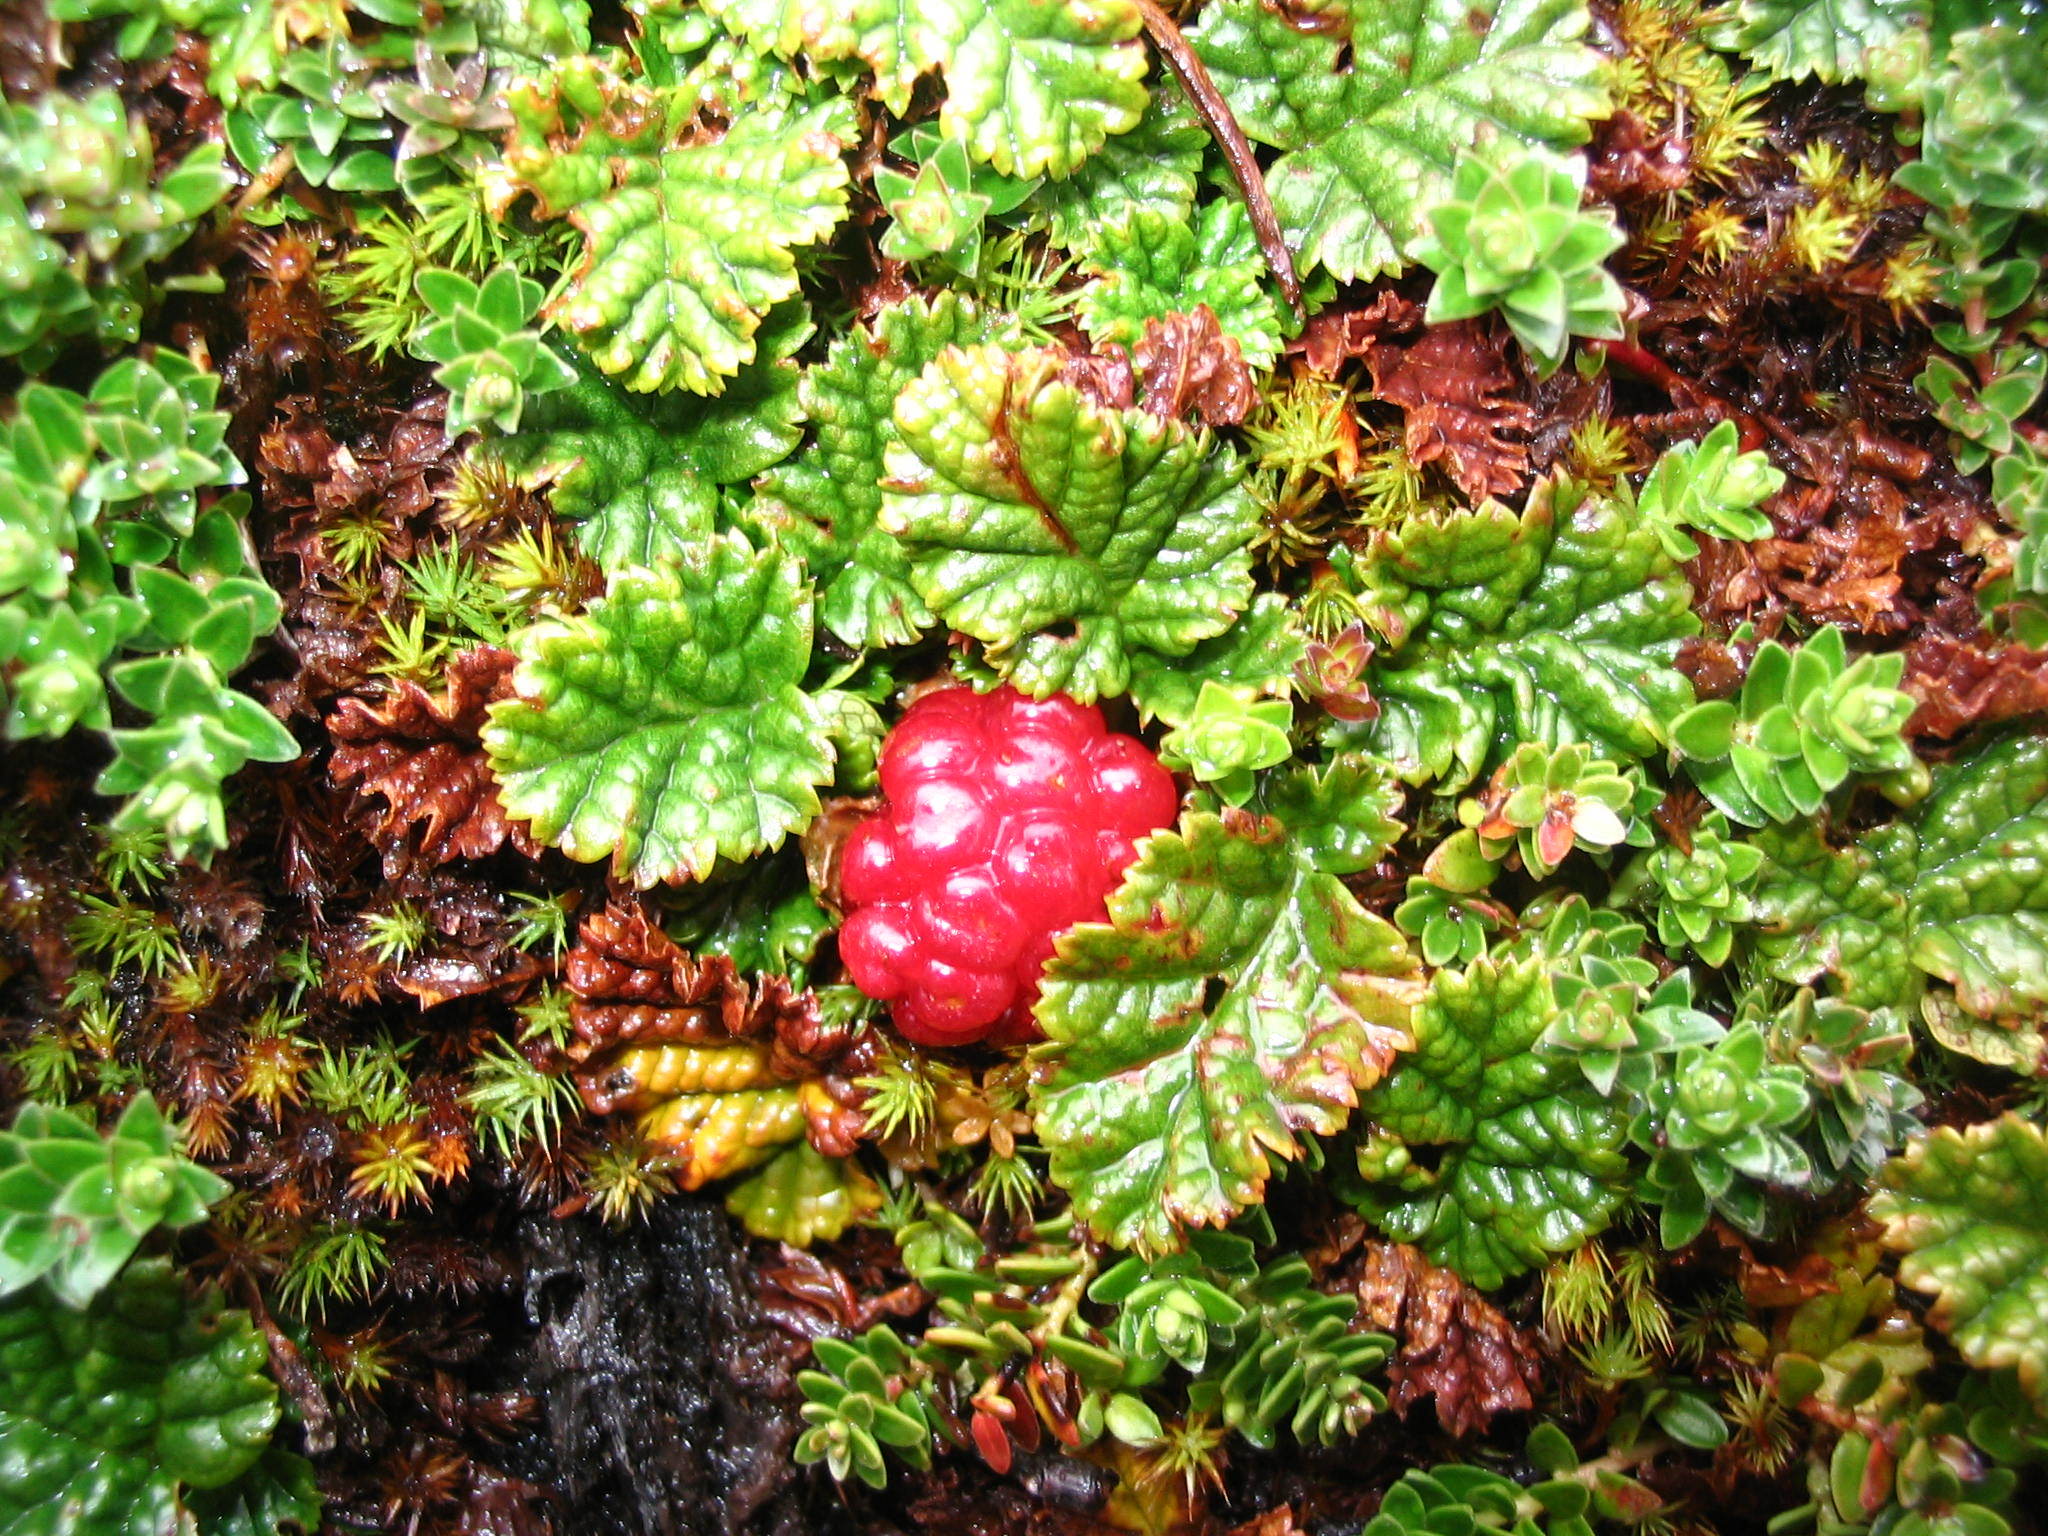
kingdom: Plantae
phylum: Tracheophyta
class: Magnoliopsida
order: Rosales
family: Rosaceae
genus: Rubus
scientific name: Rubus geoides
